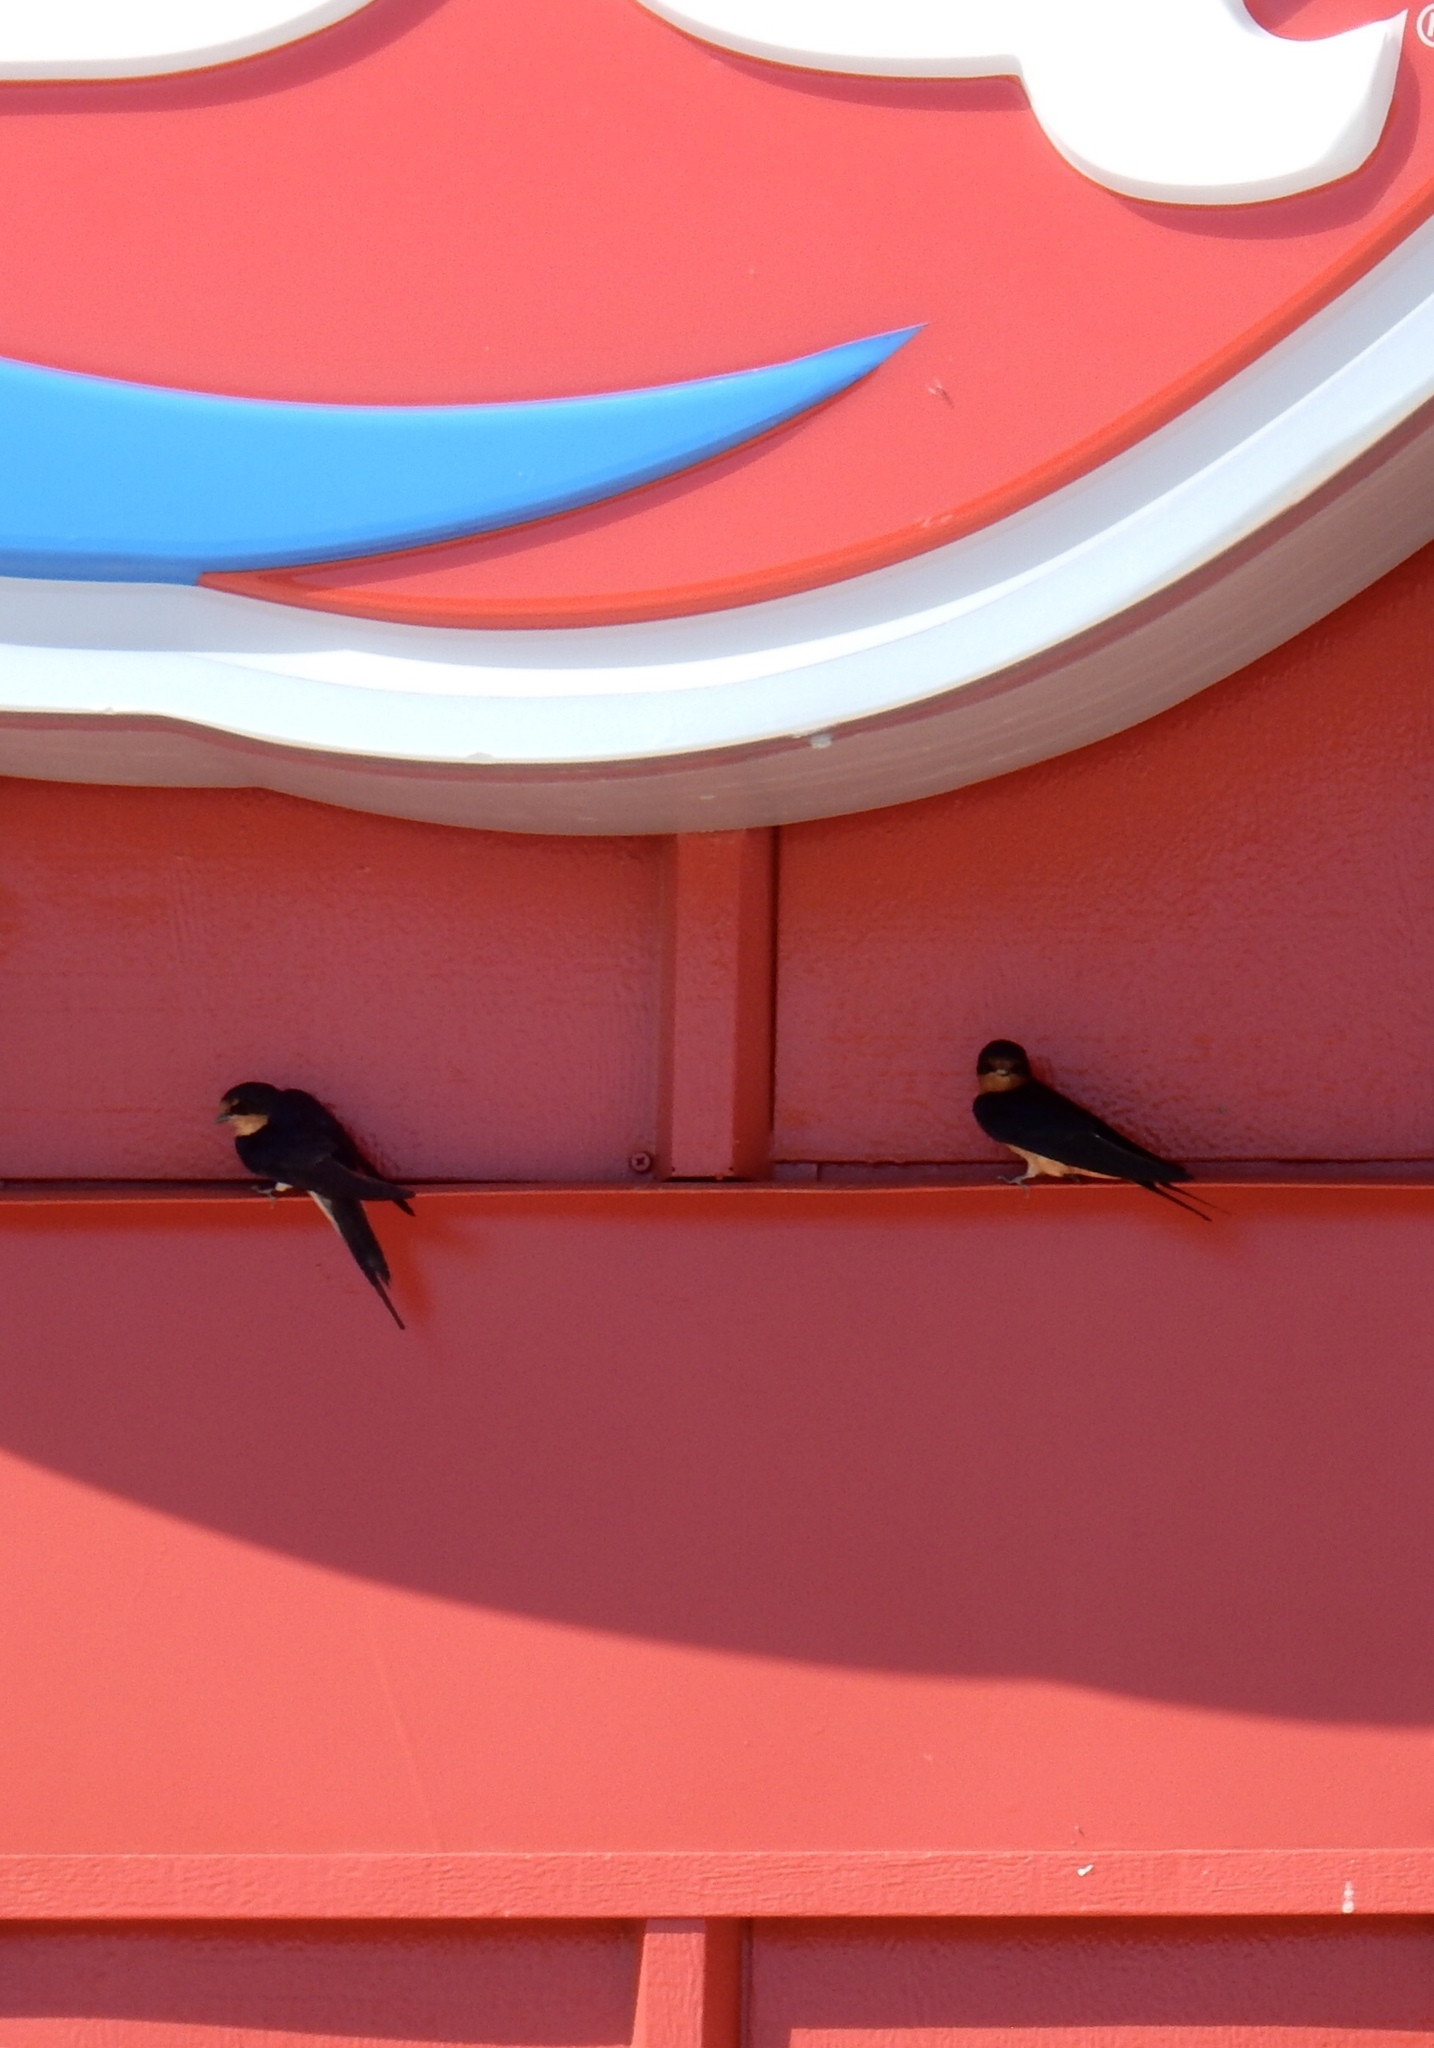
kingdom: Animalia
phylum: Chordata
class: Aves
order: Passeriformes
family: Hirundinidae
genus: Hirundo
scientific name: Hirundo rustica
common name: Barn swallow
